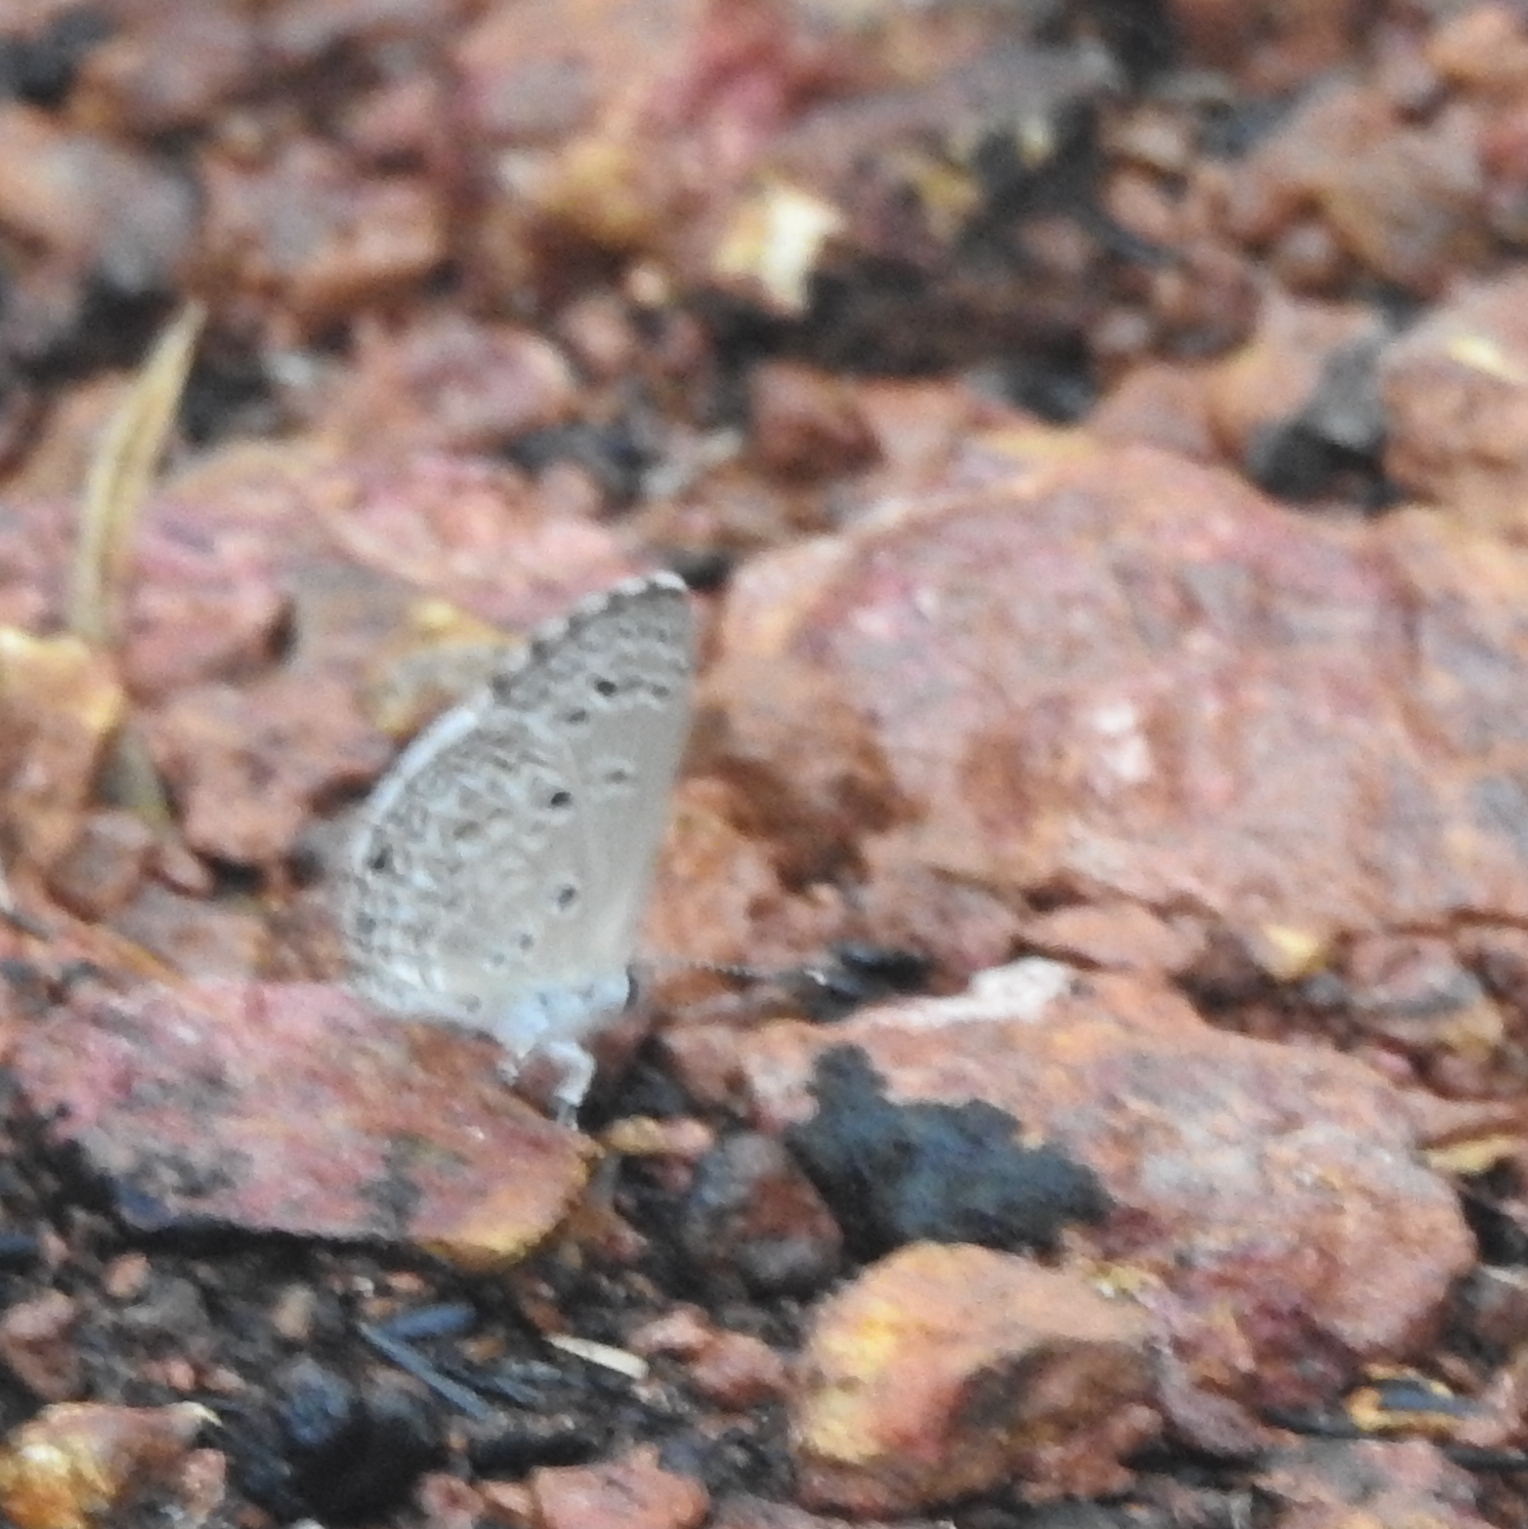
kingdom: Animalia
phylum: Arthropoda
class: Insecta
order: Lepidoptera
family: Lycaenidae
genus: Chilades
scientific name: Chilades laius
